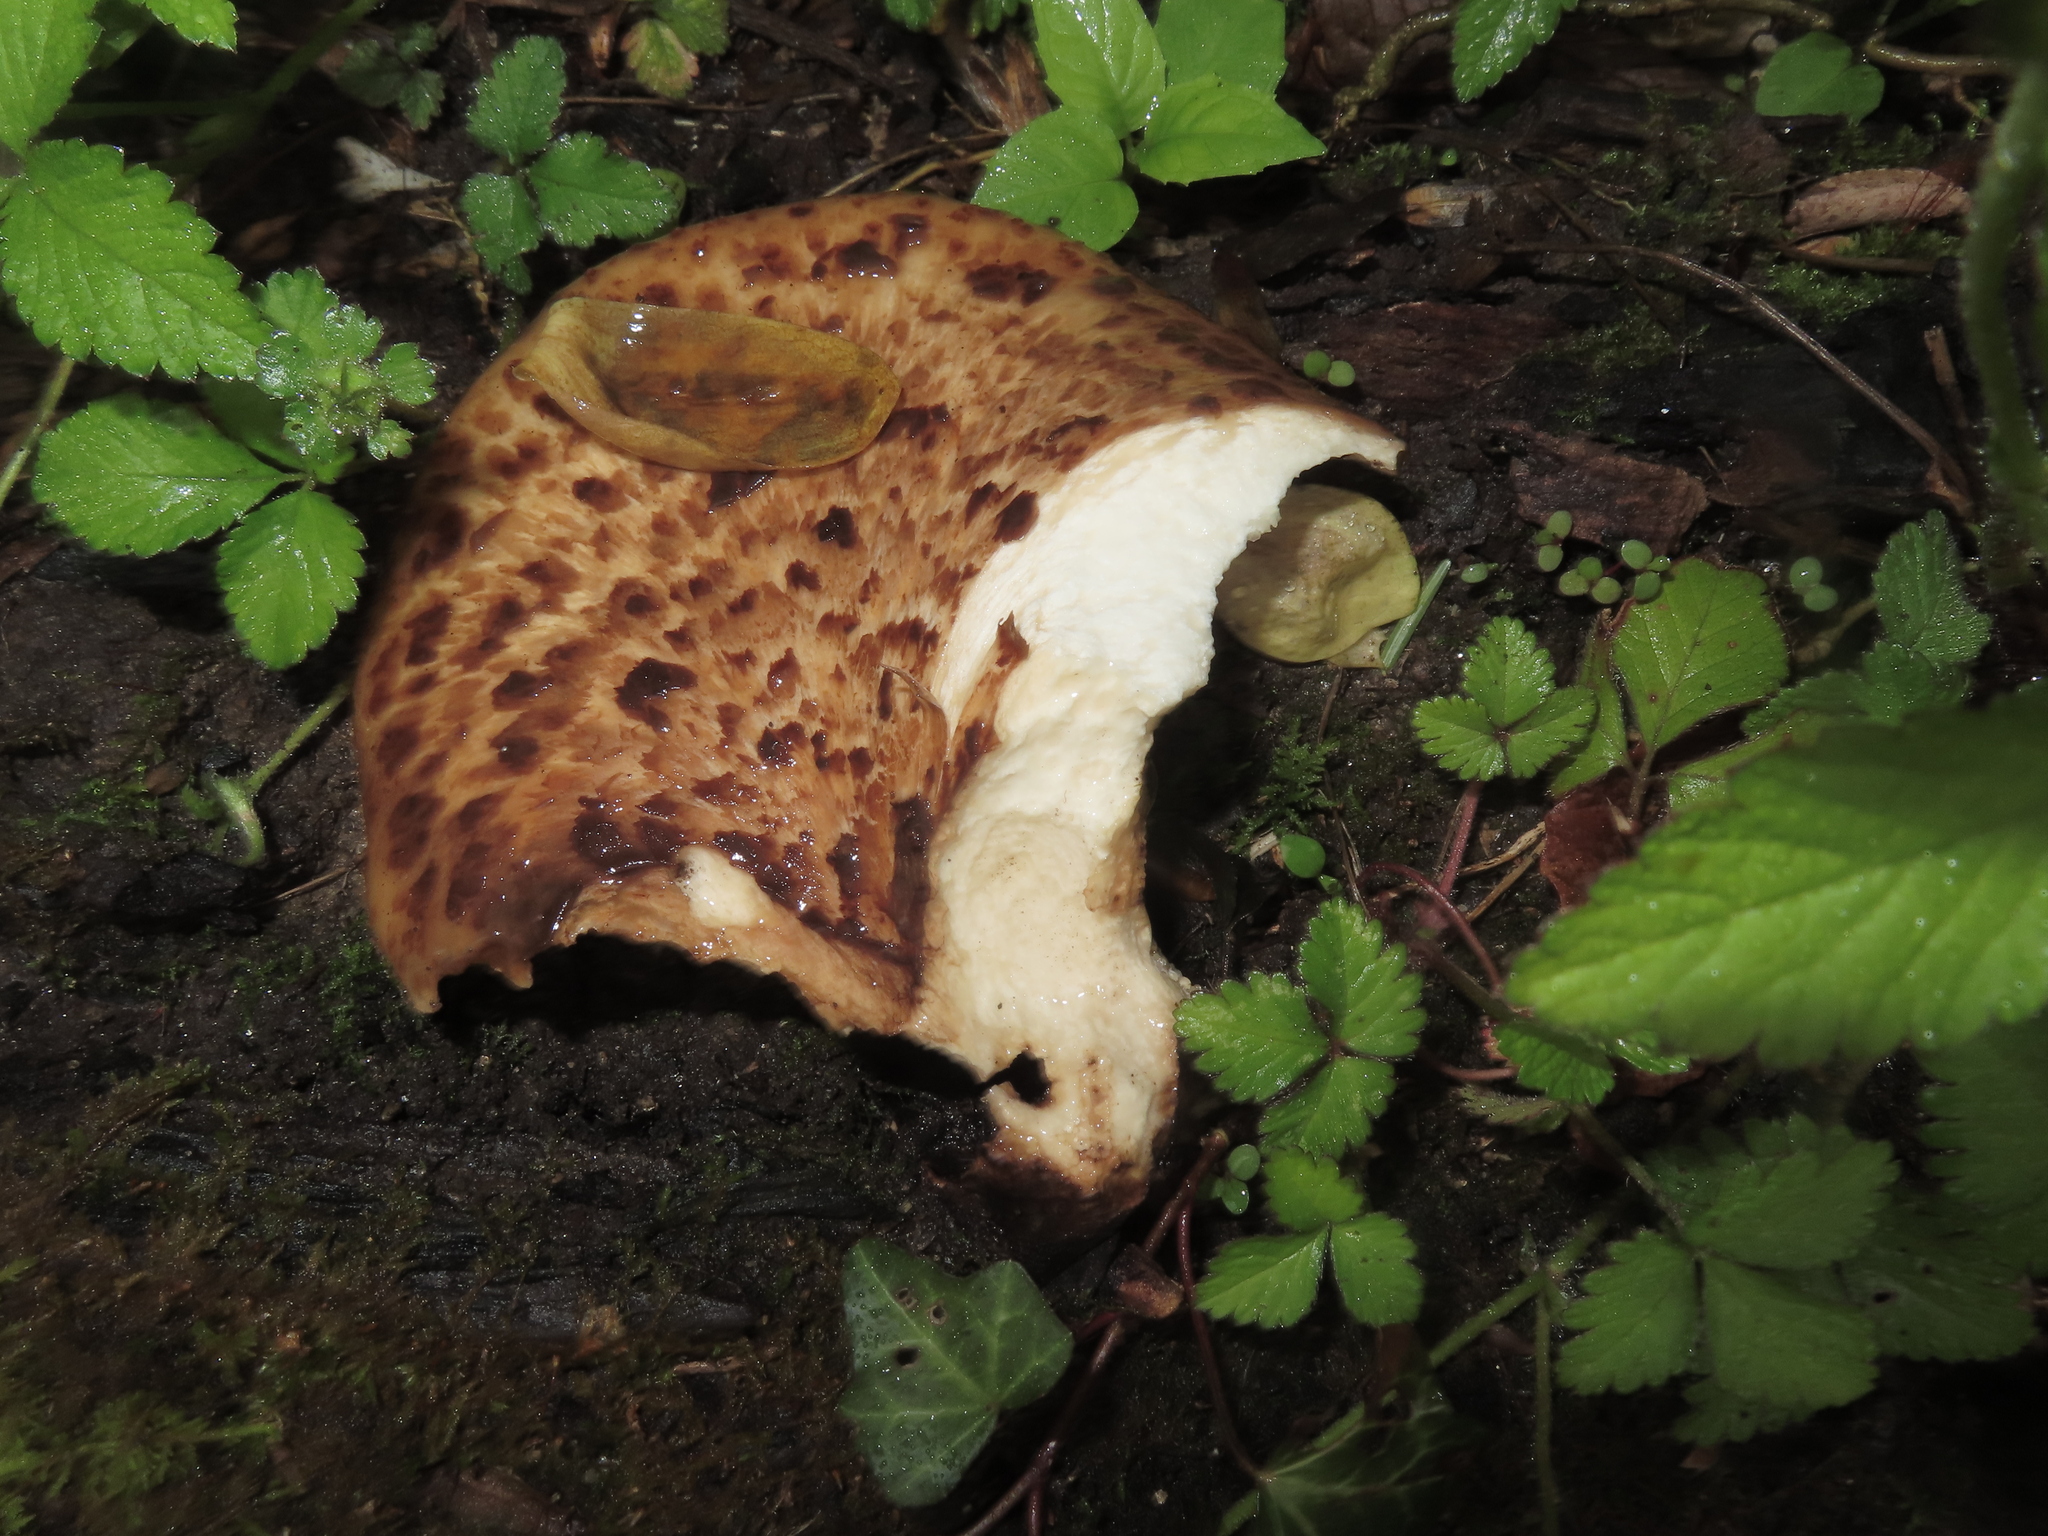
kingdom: Fungi
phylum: Basidiomycota
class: Agaricomycetes
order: Polyporales
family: Polyporaceae
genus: Cerioporus
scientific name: Cerioporus squamosus
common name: Dryad's saddle
